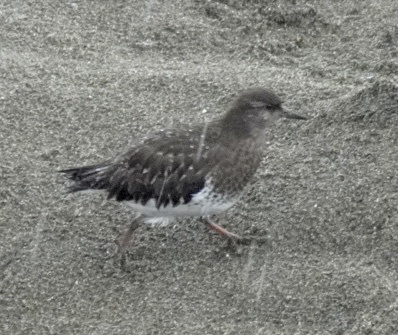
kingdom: Animalia
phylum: Chordata
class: Aves
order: Charadriiformes
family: Scolopacidae
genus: Arenaria
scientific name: Arenaria melanocephala
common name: Black turnstone
